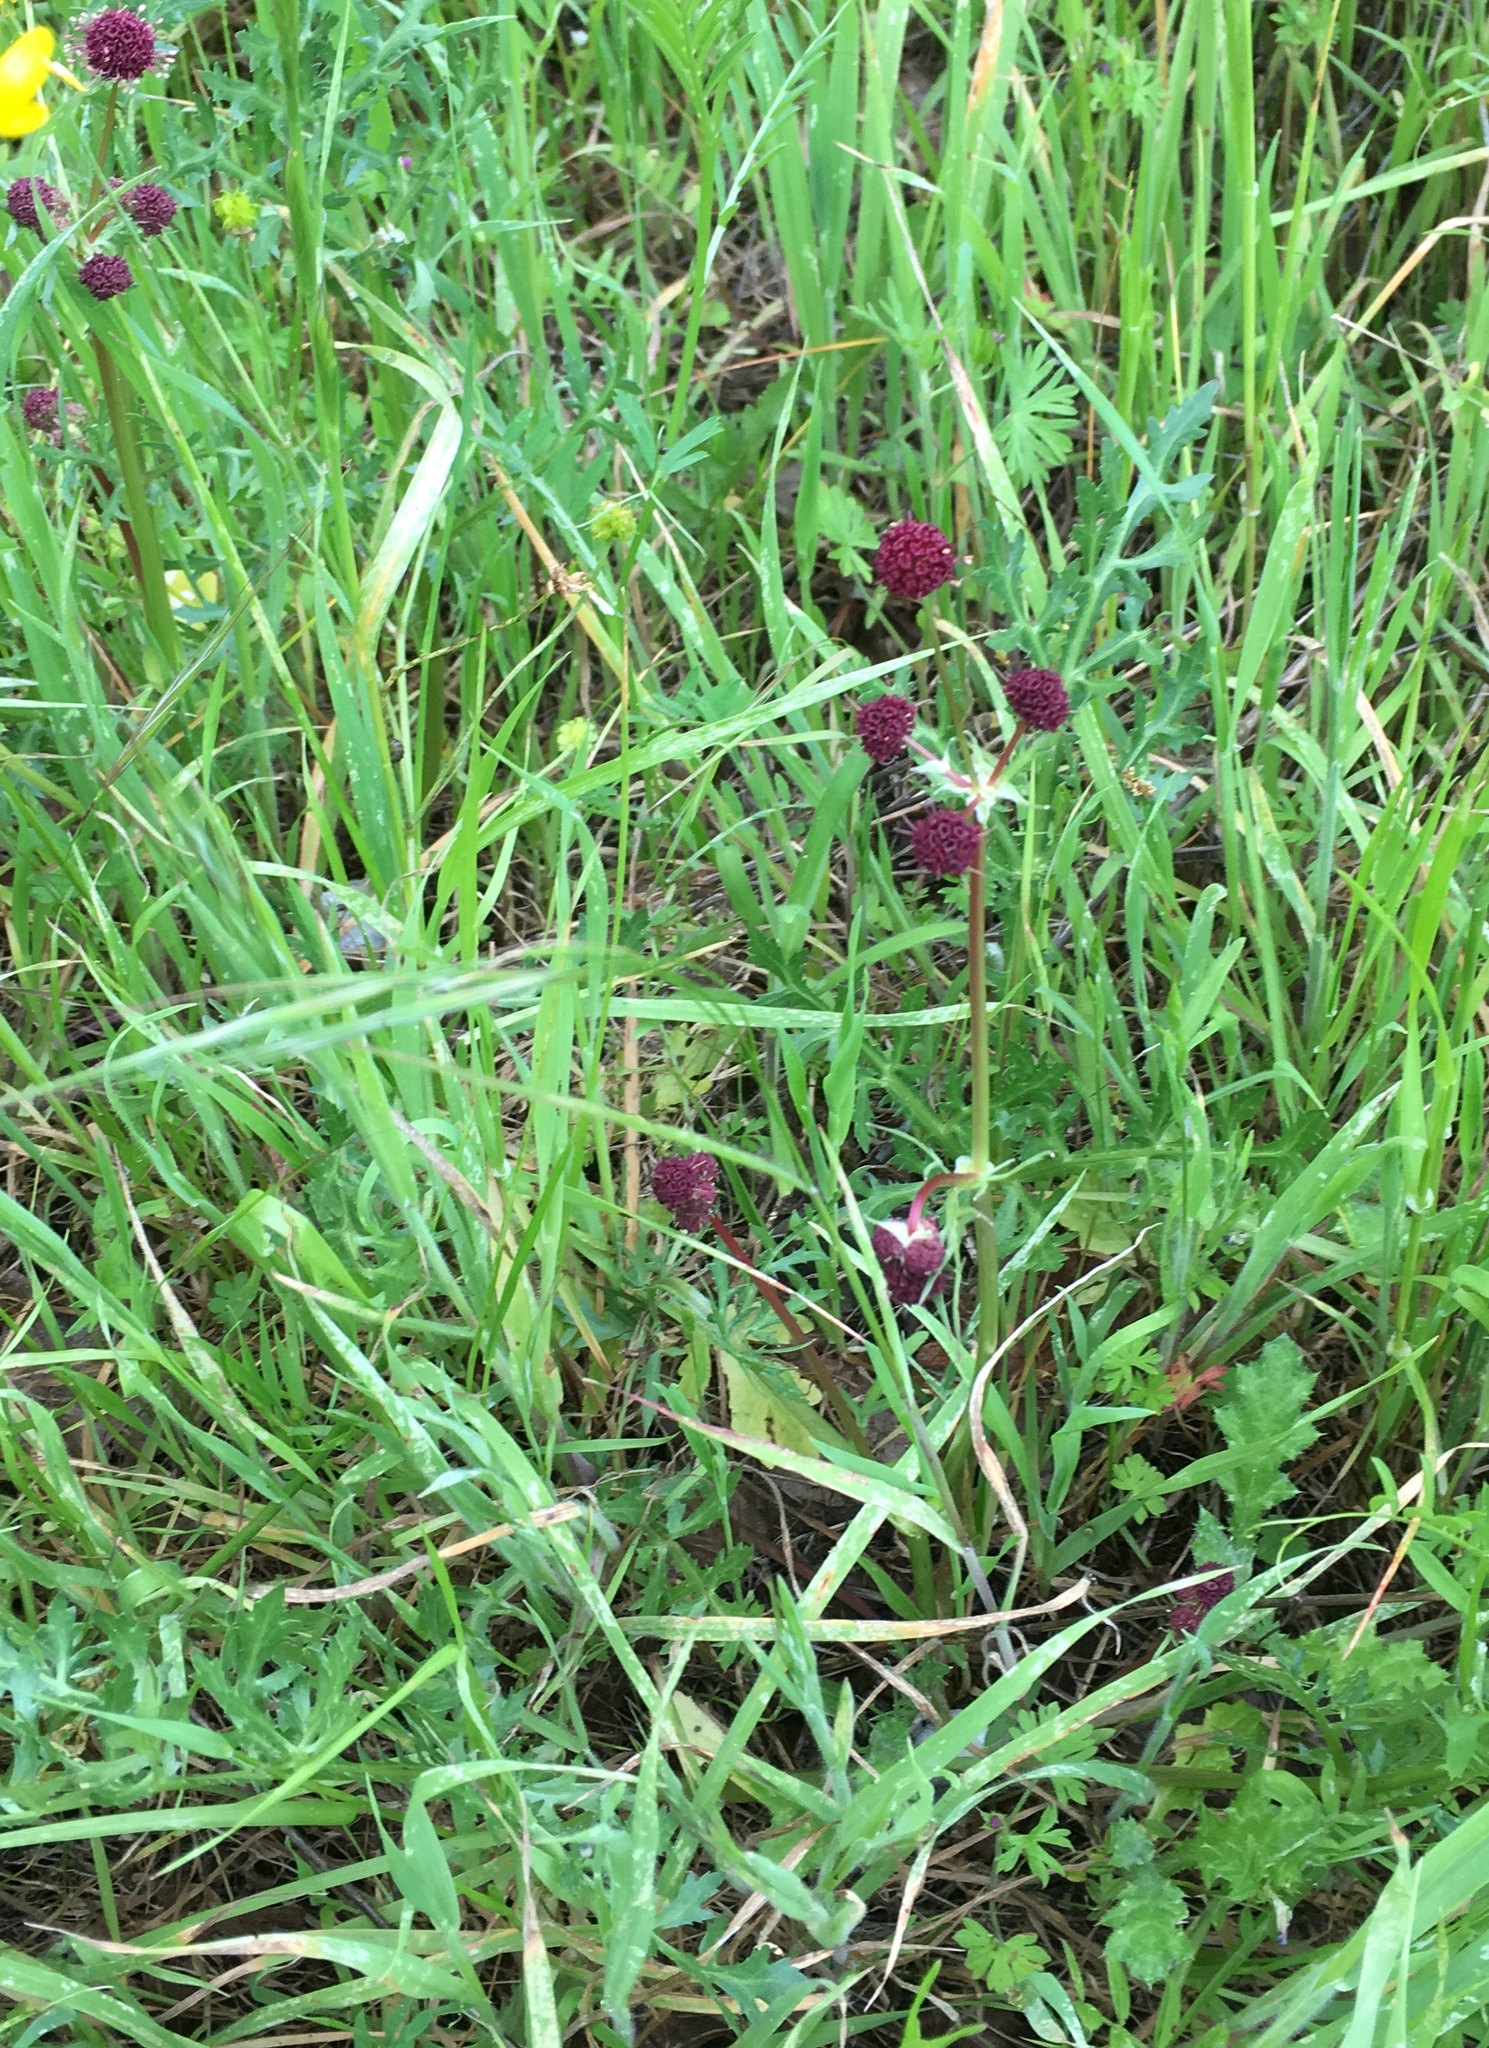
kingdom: Plantae
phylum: Tracheophyta
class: Magnoliopsida
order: Apiales
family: Apiaceae
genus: Sanicula
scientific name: Sanicula bipinnatifida
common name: Shoe-buttons
